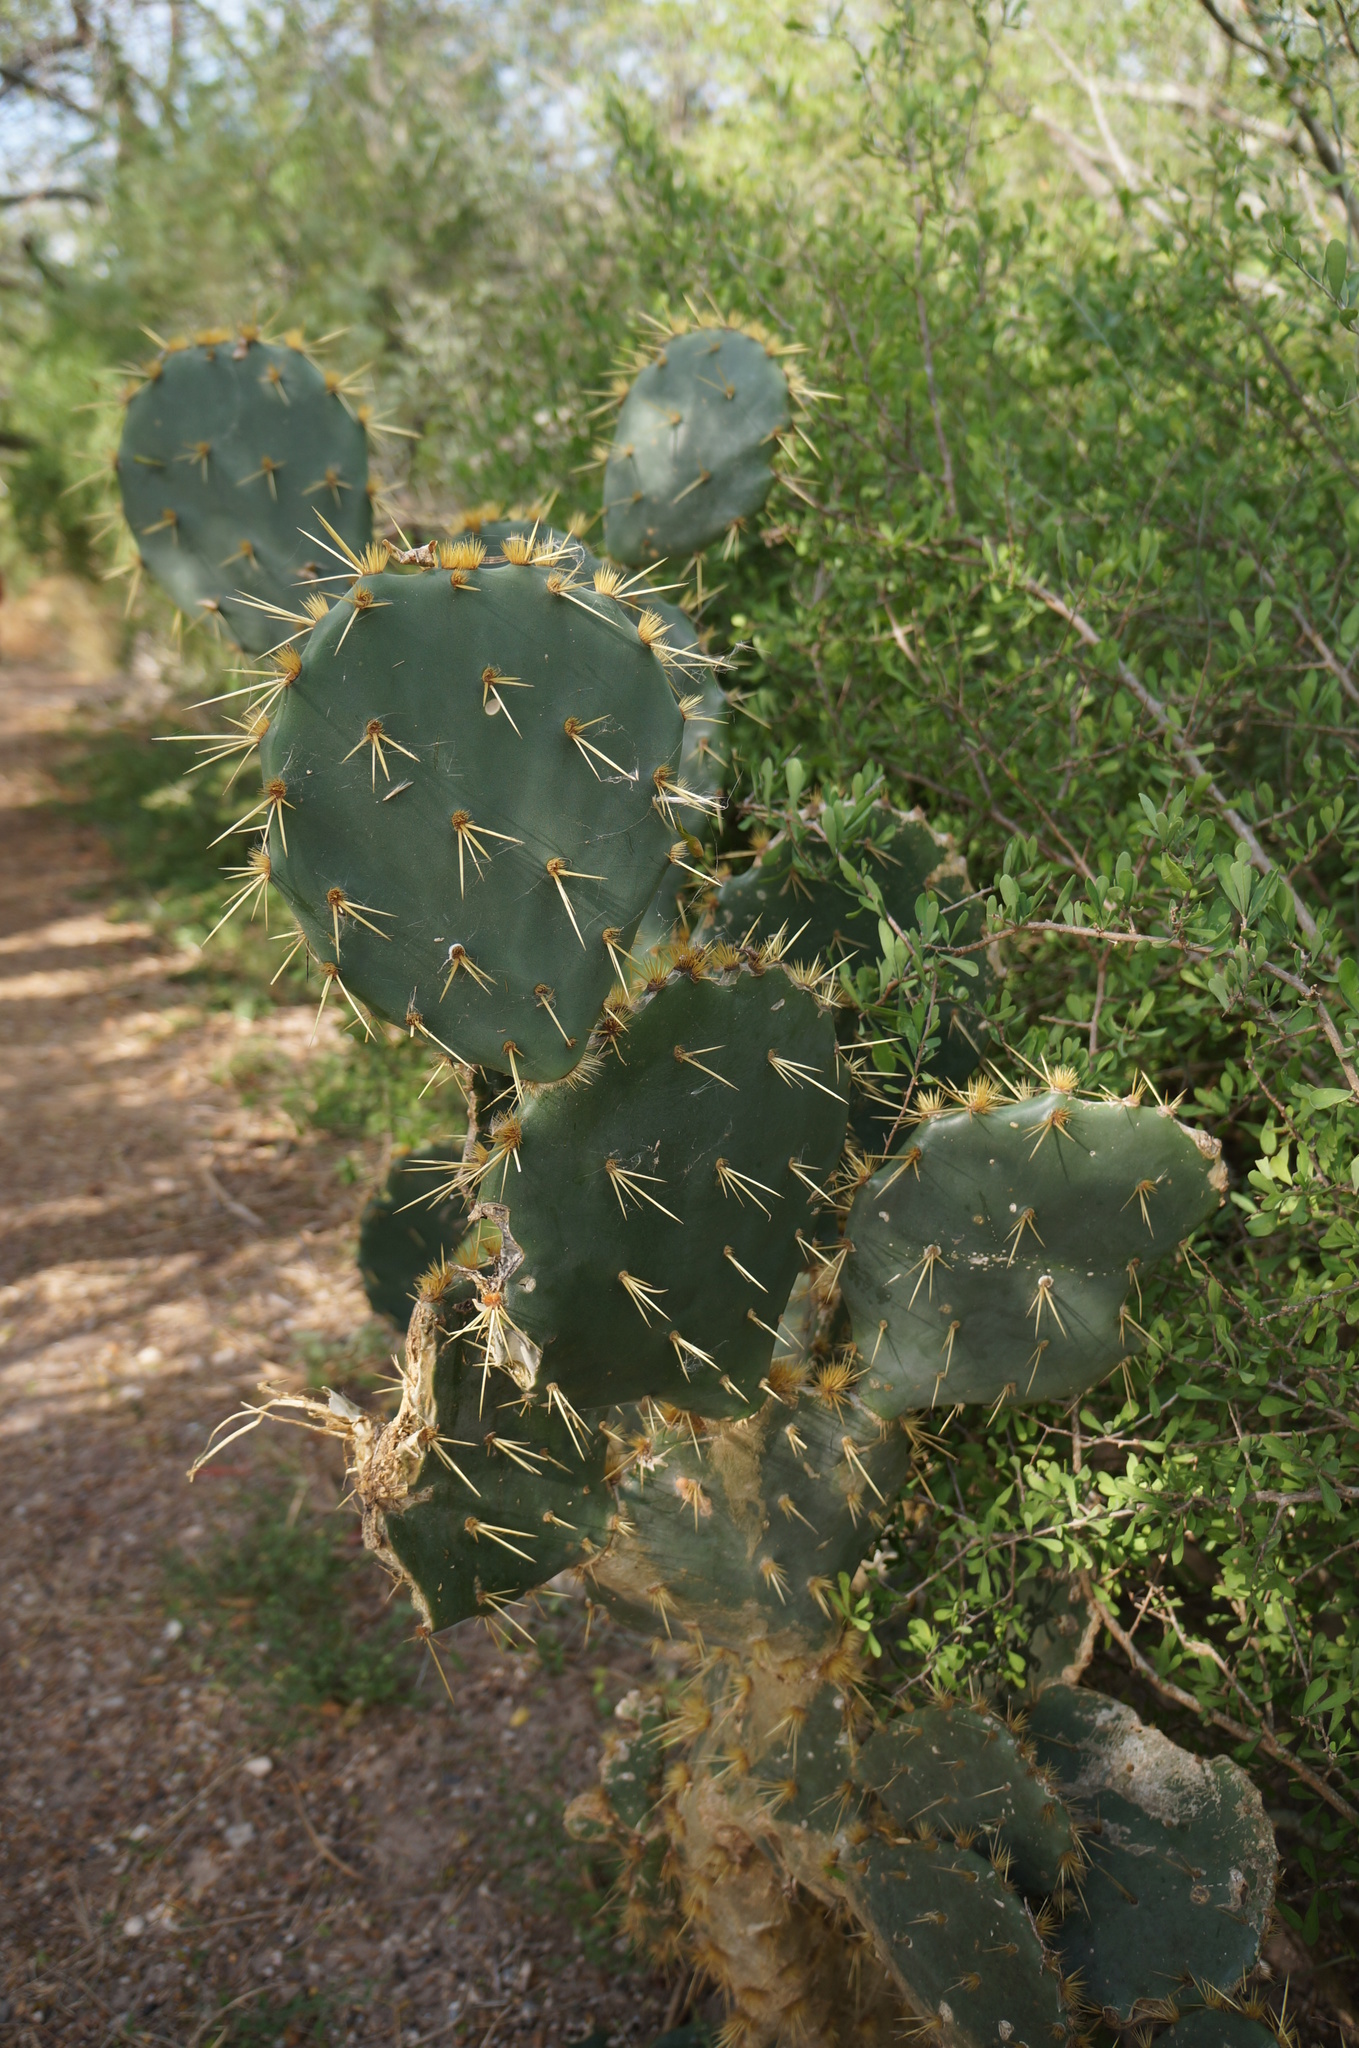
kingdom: Plantae
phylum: Tracheophyta
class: Magnoliopsida
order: Caryophyllales
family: Cactaceae
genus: Opuntia
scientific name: Opuntia alta
